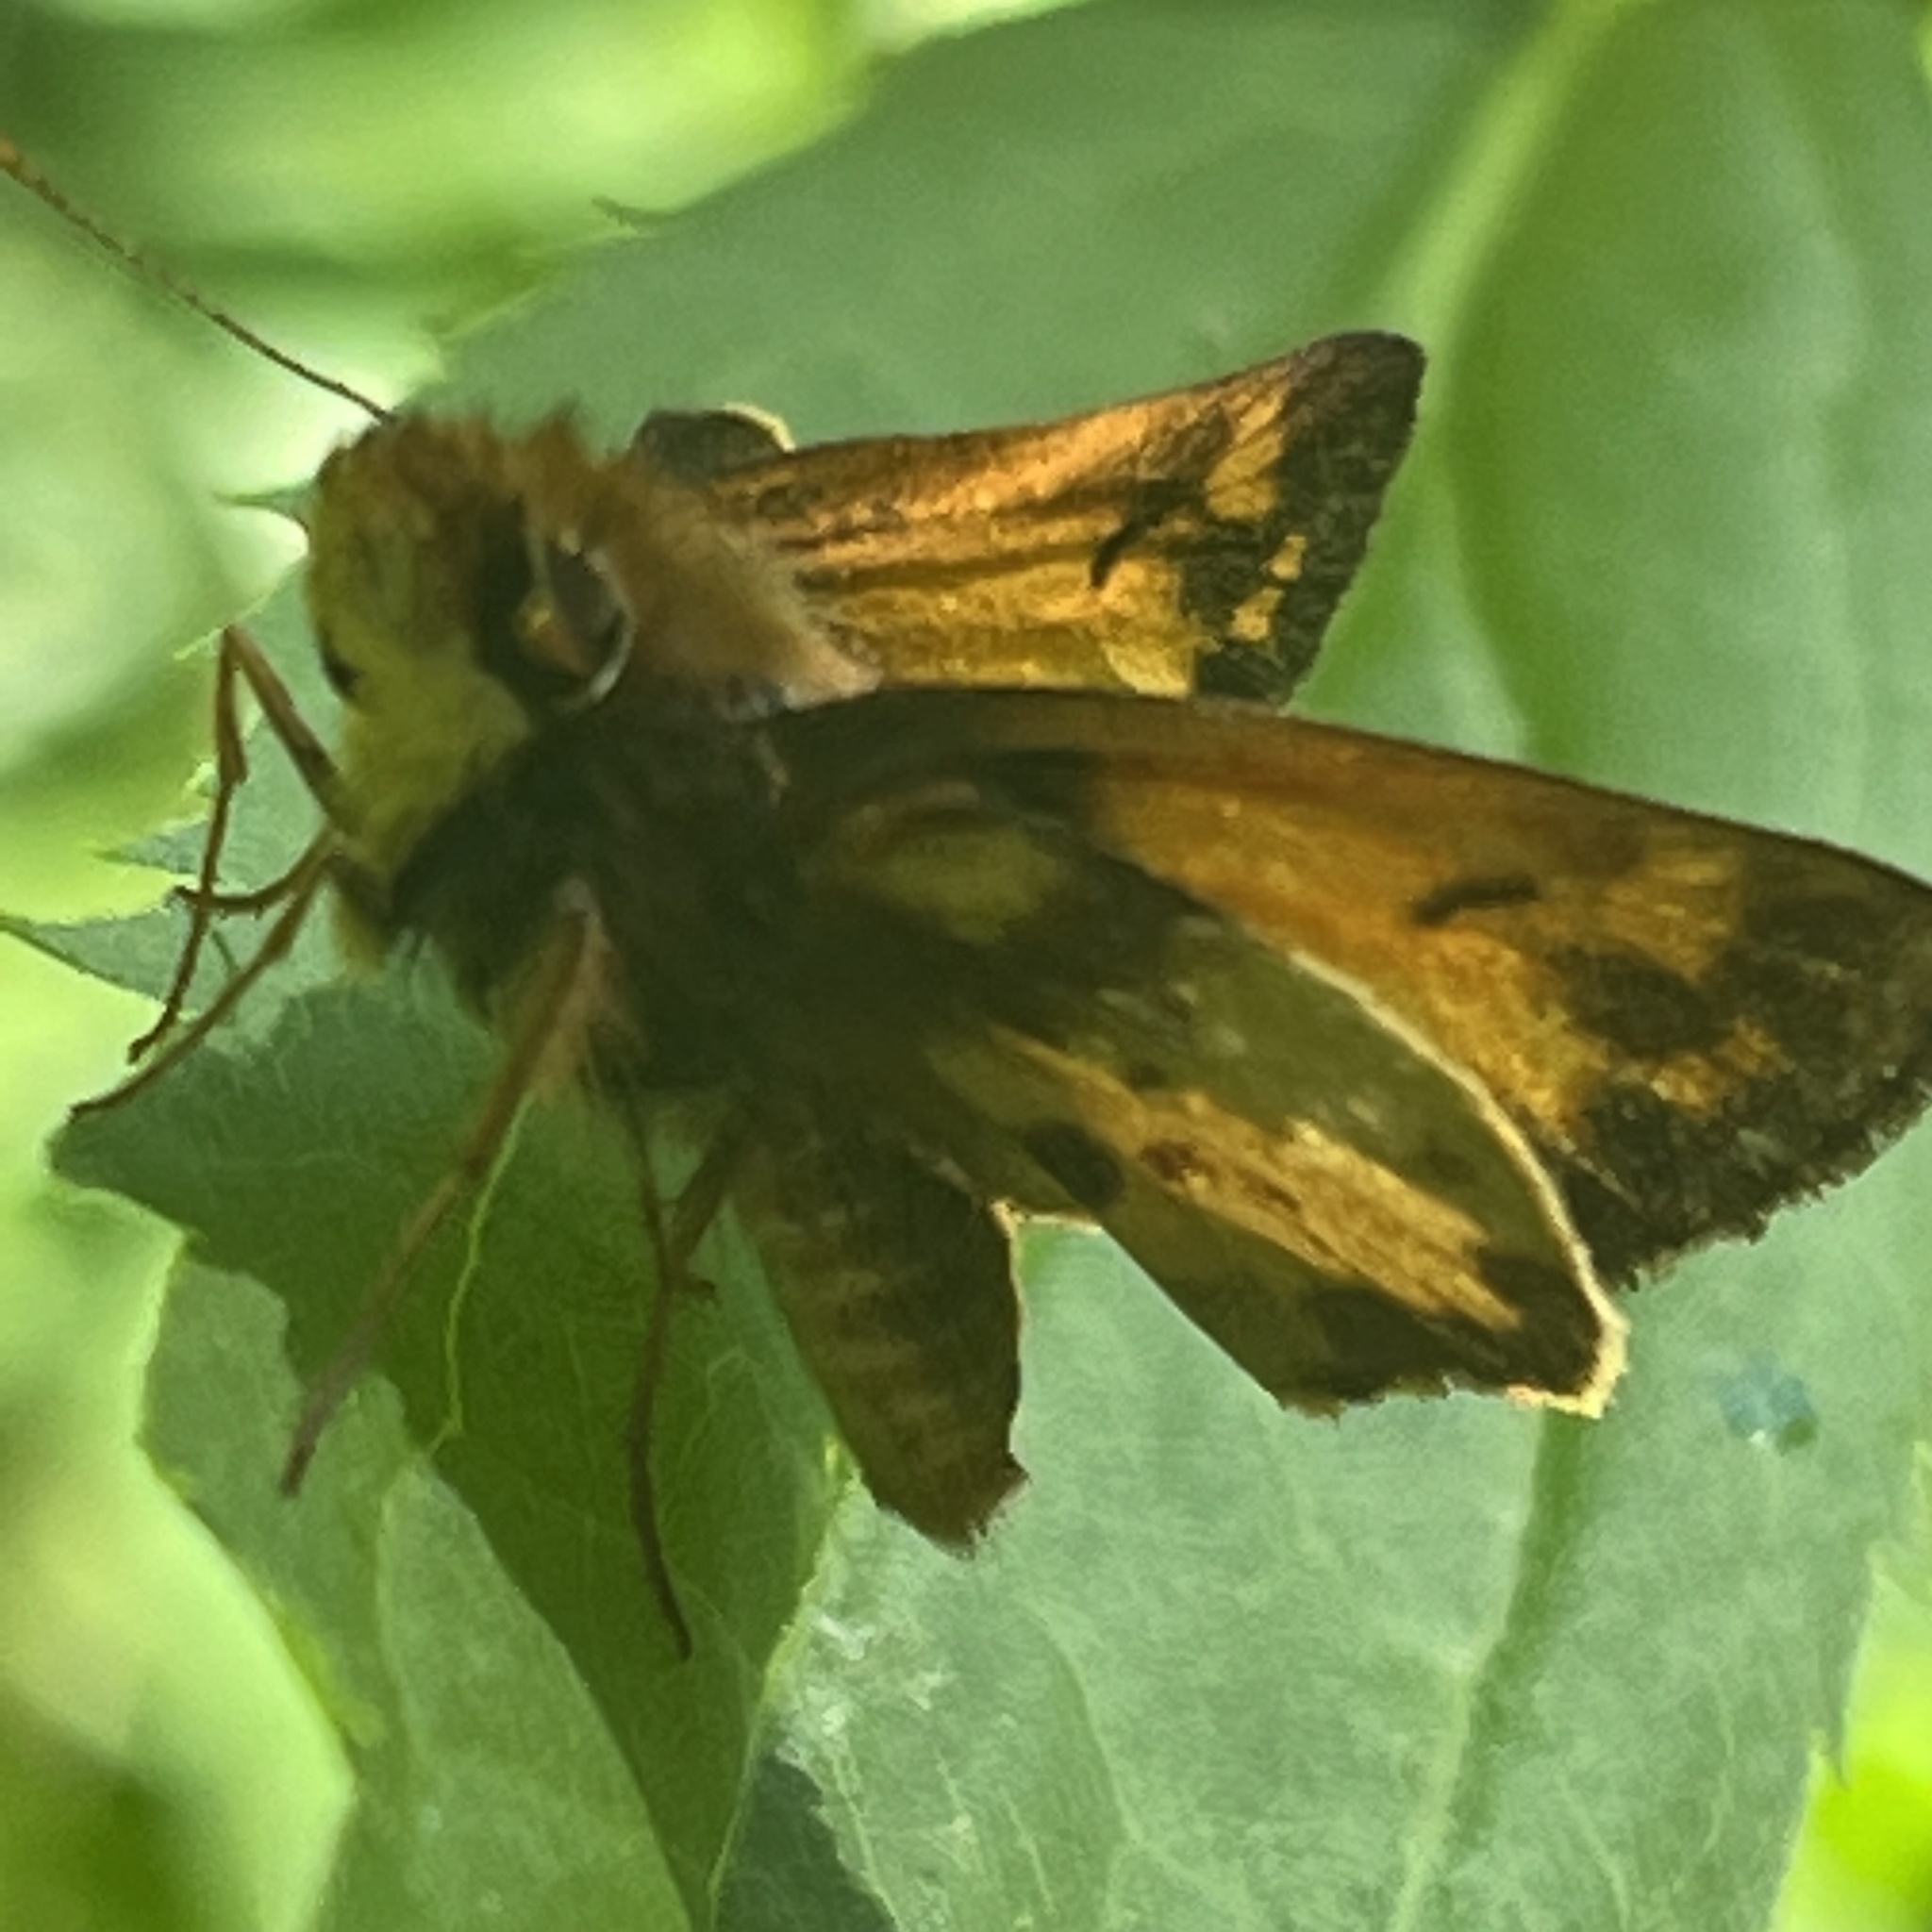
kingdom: Animalia
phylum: Arthropoda
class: Insecta
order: Lepidoptera
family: Hesperiidae
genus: Lon
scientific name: Lon zabulon
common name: Zabulon skipper
